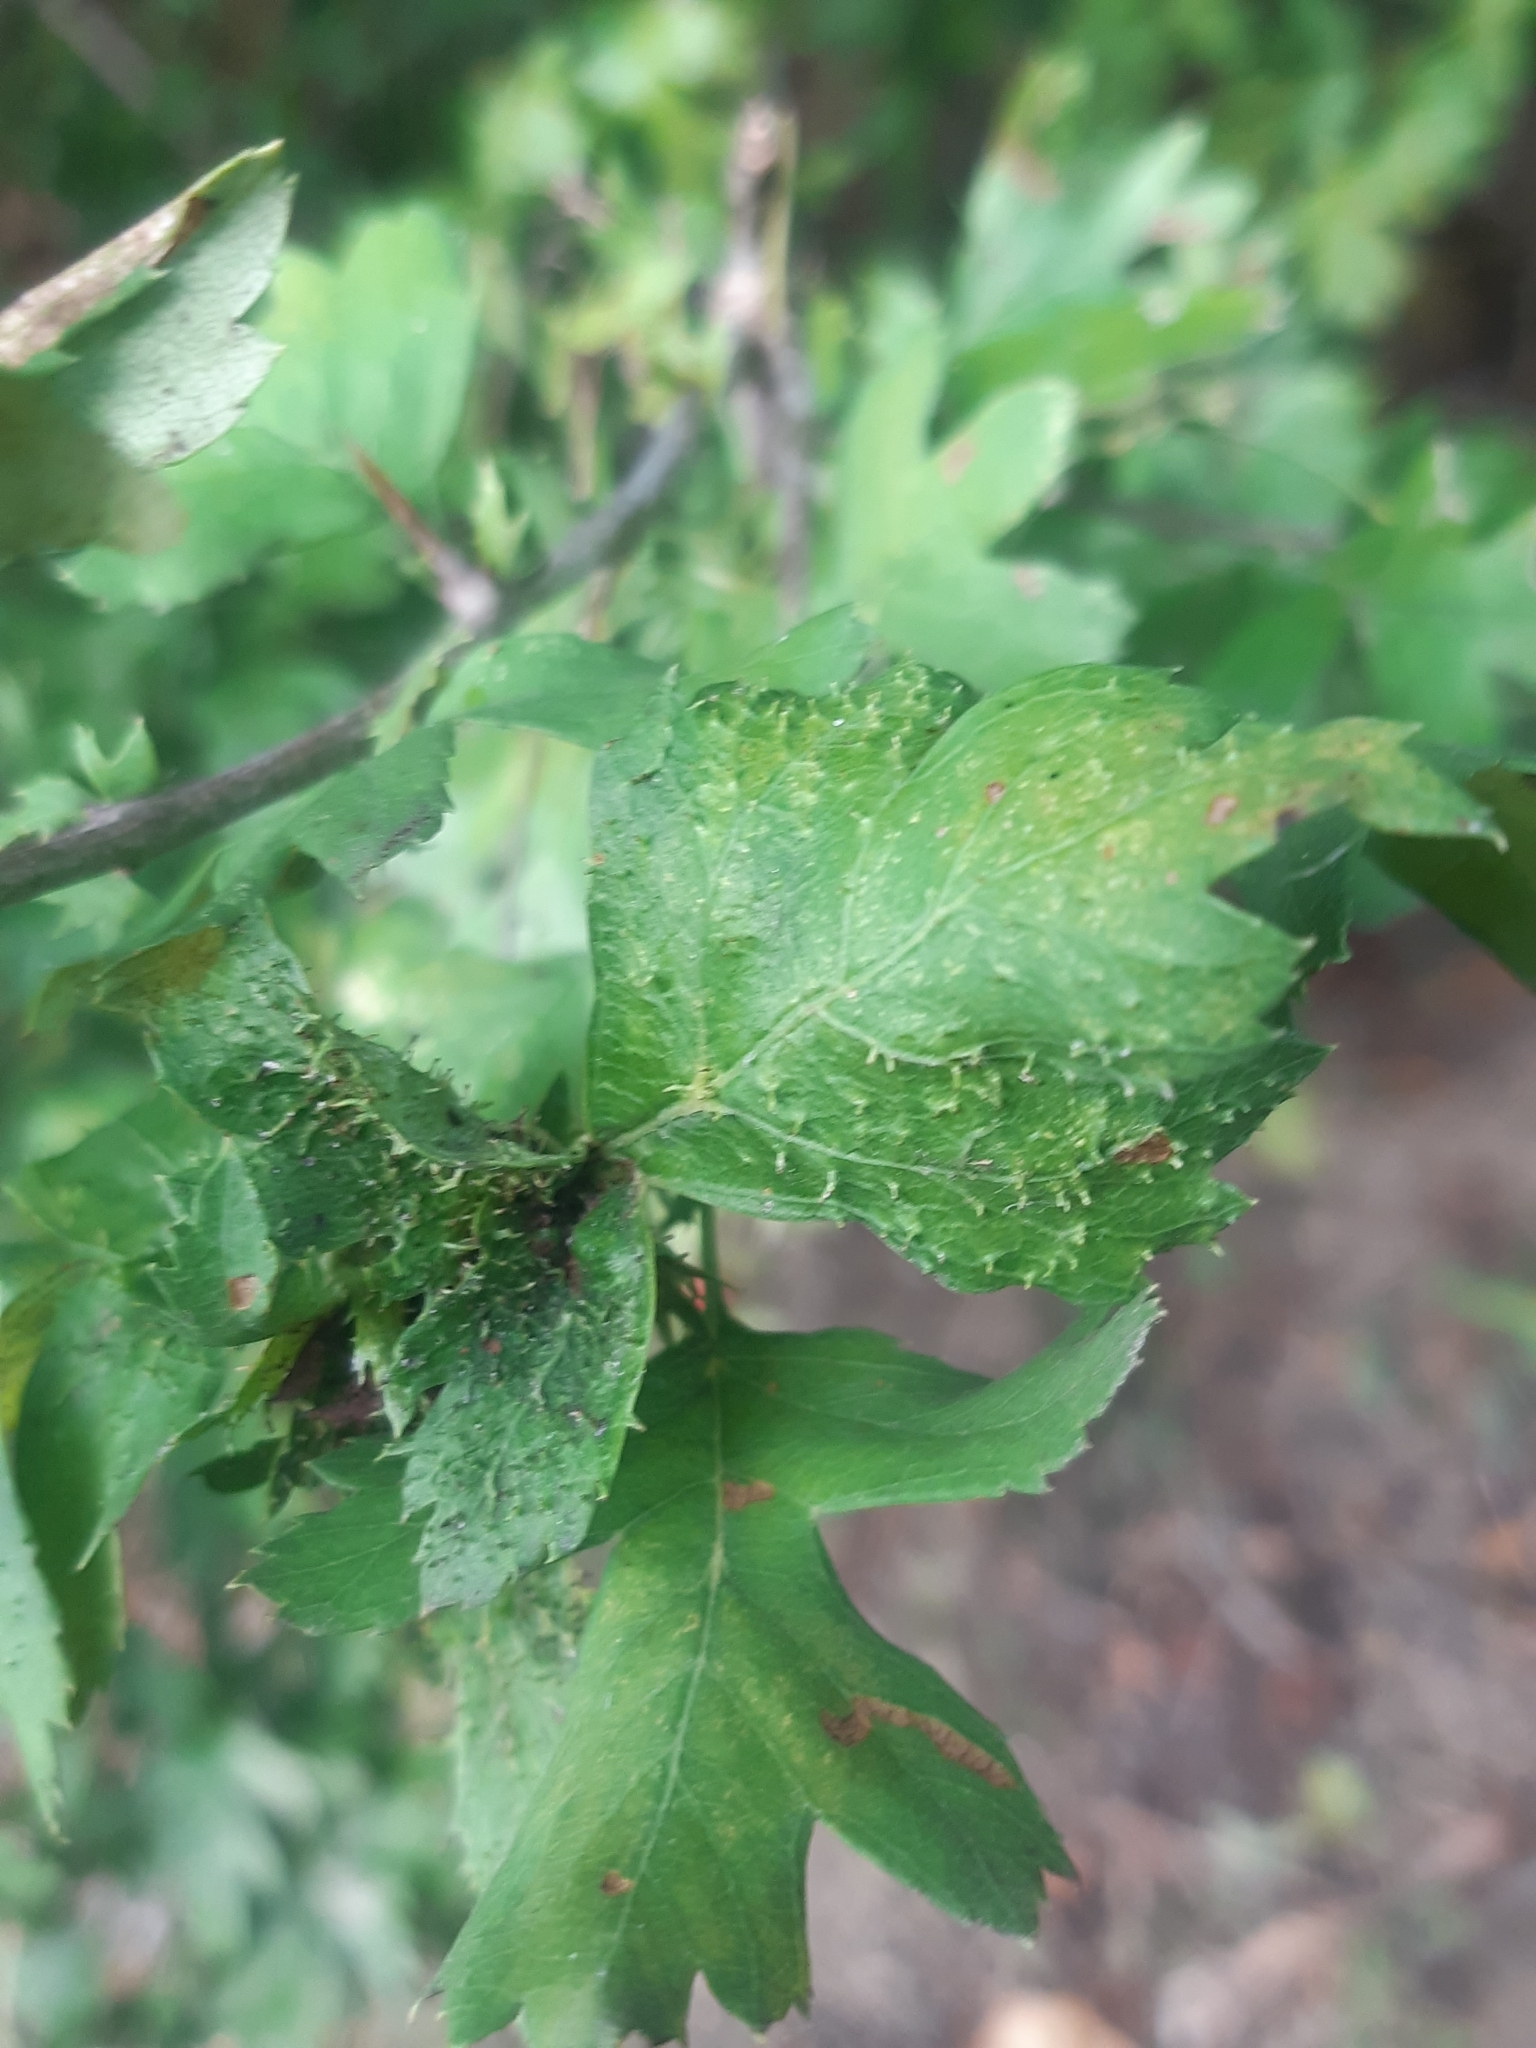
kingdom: Animalia
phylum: Arthropoda
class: Insecta
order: Diptera
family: Cecidomyiidae
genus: Dasineura
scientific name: Dasineura crataegi
